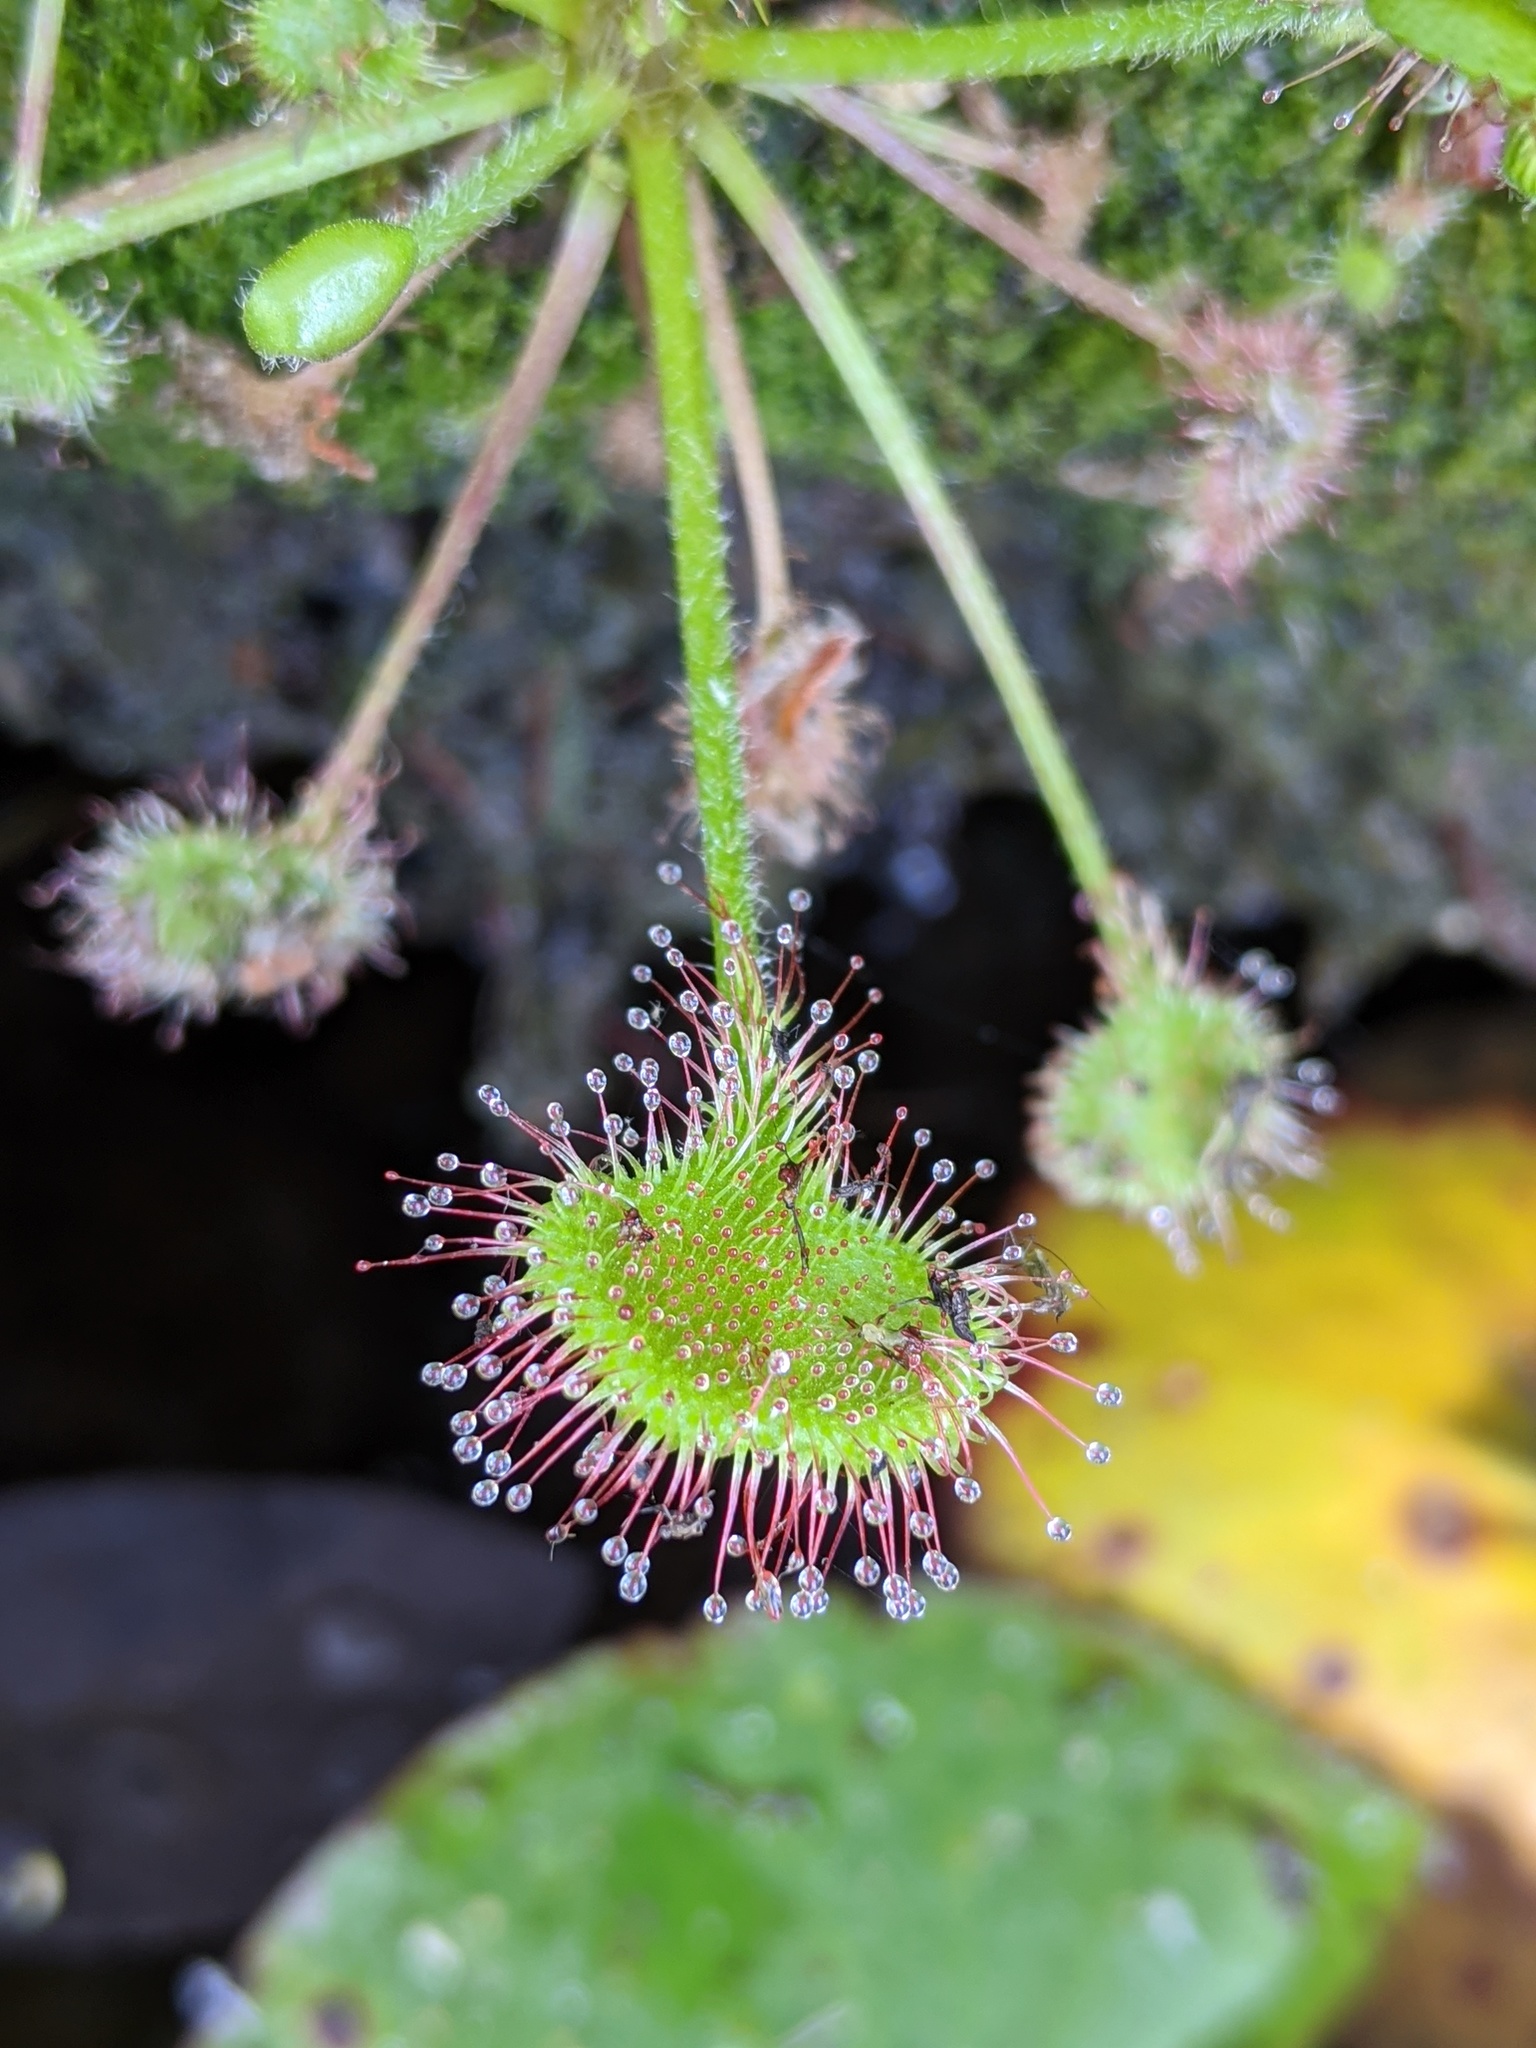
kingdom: Plantae
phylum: Tracheophyta
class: Magnoliopsida
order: Caryophyllales
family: Droseraceae
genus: Drosera
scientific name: Drosera rotundifolia
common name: Round-leaved sundew
